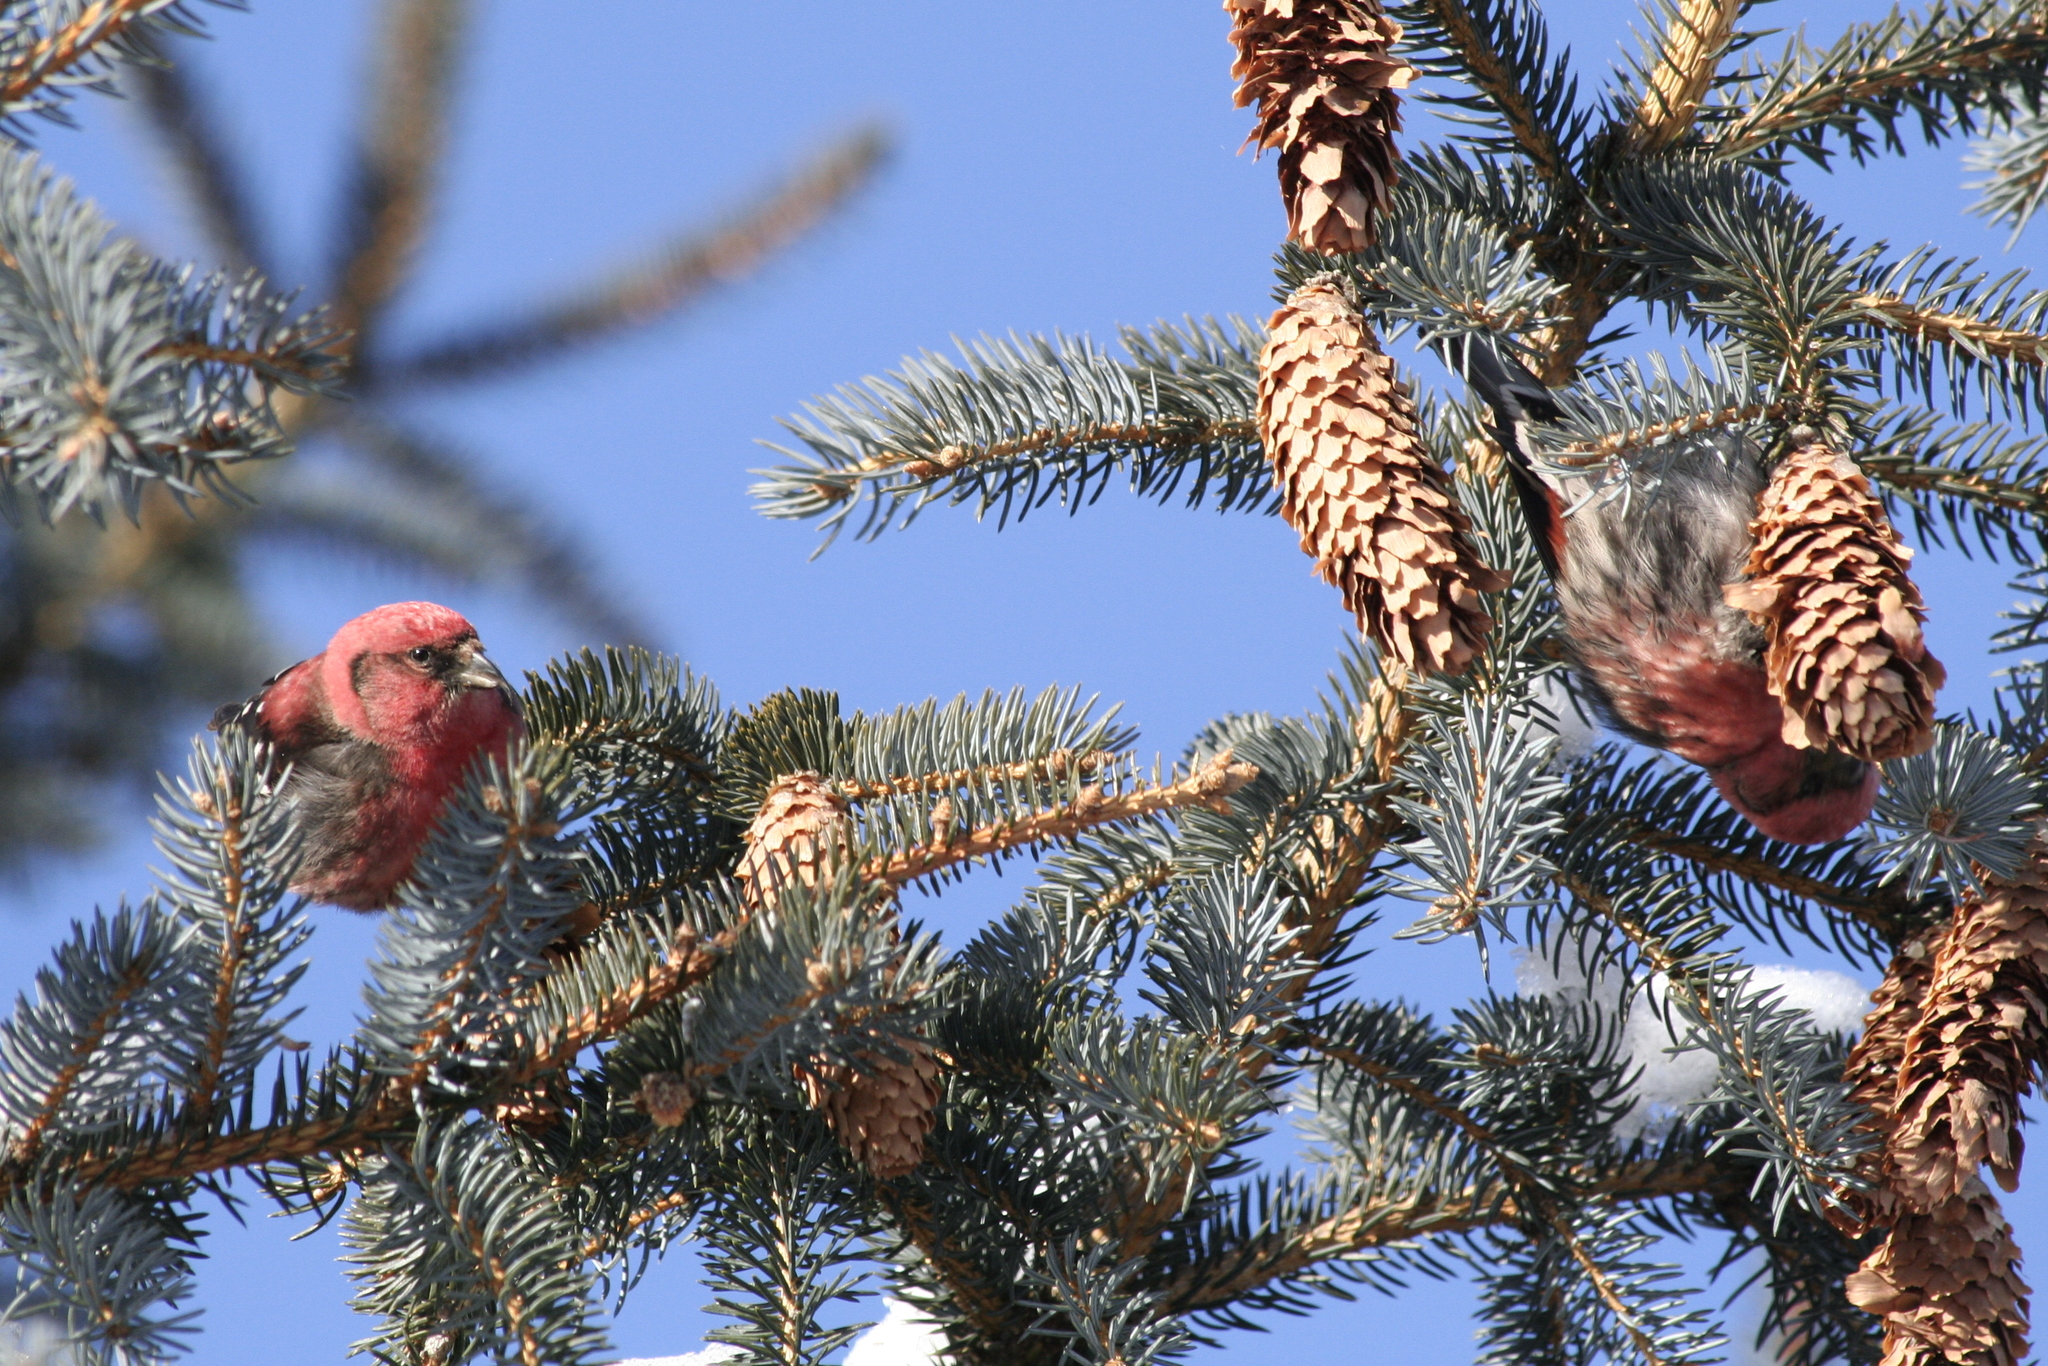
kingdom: Animalia
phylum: Chordata
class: Aves
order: Passeriformes
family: Fringillidae
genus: Loxia
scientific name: Loxia leucoptera
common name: Two-barred crossbill
